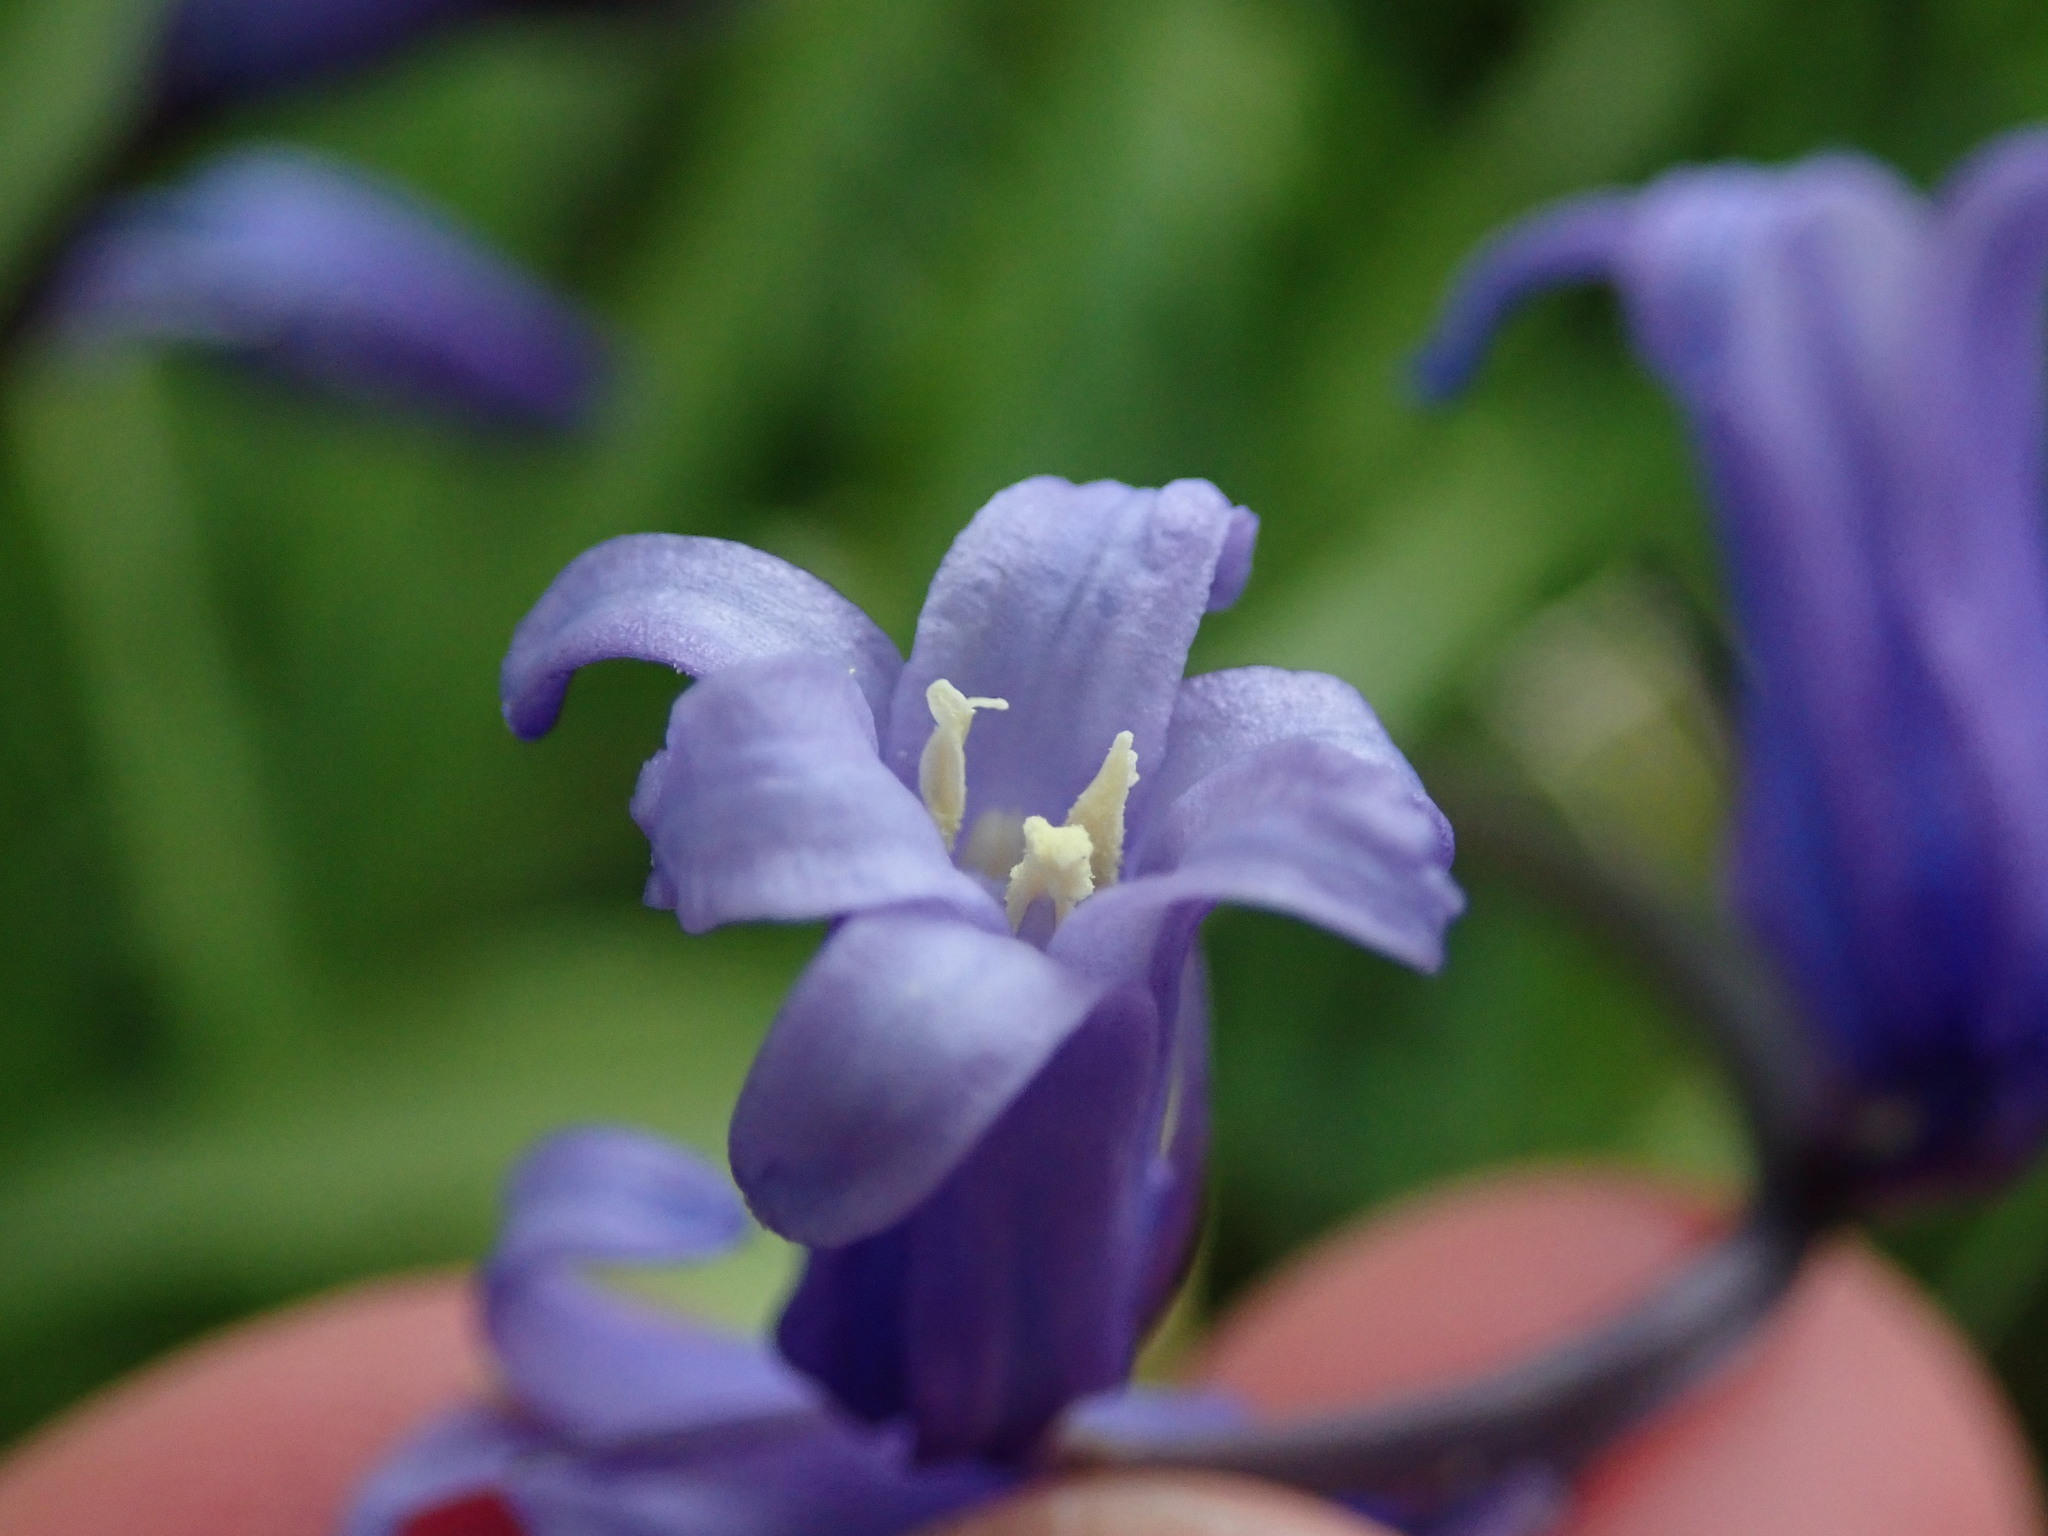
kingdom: Plantae
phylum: Tracheophyta
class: Liliopsida
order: Asparagales
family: Asparagaceae
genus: Hyacinthoides
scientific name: Hyacinthoides non-scripta
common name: Bluebell
